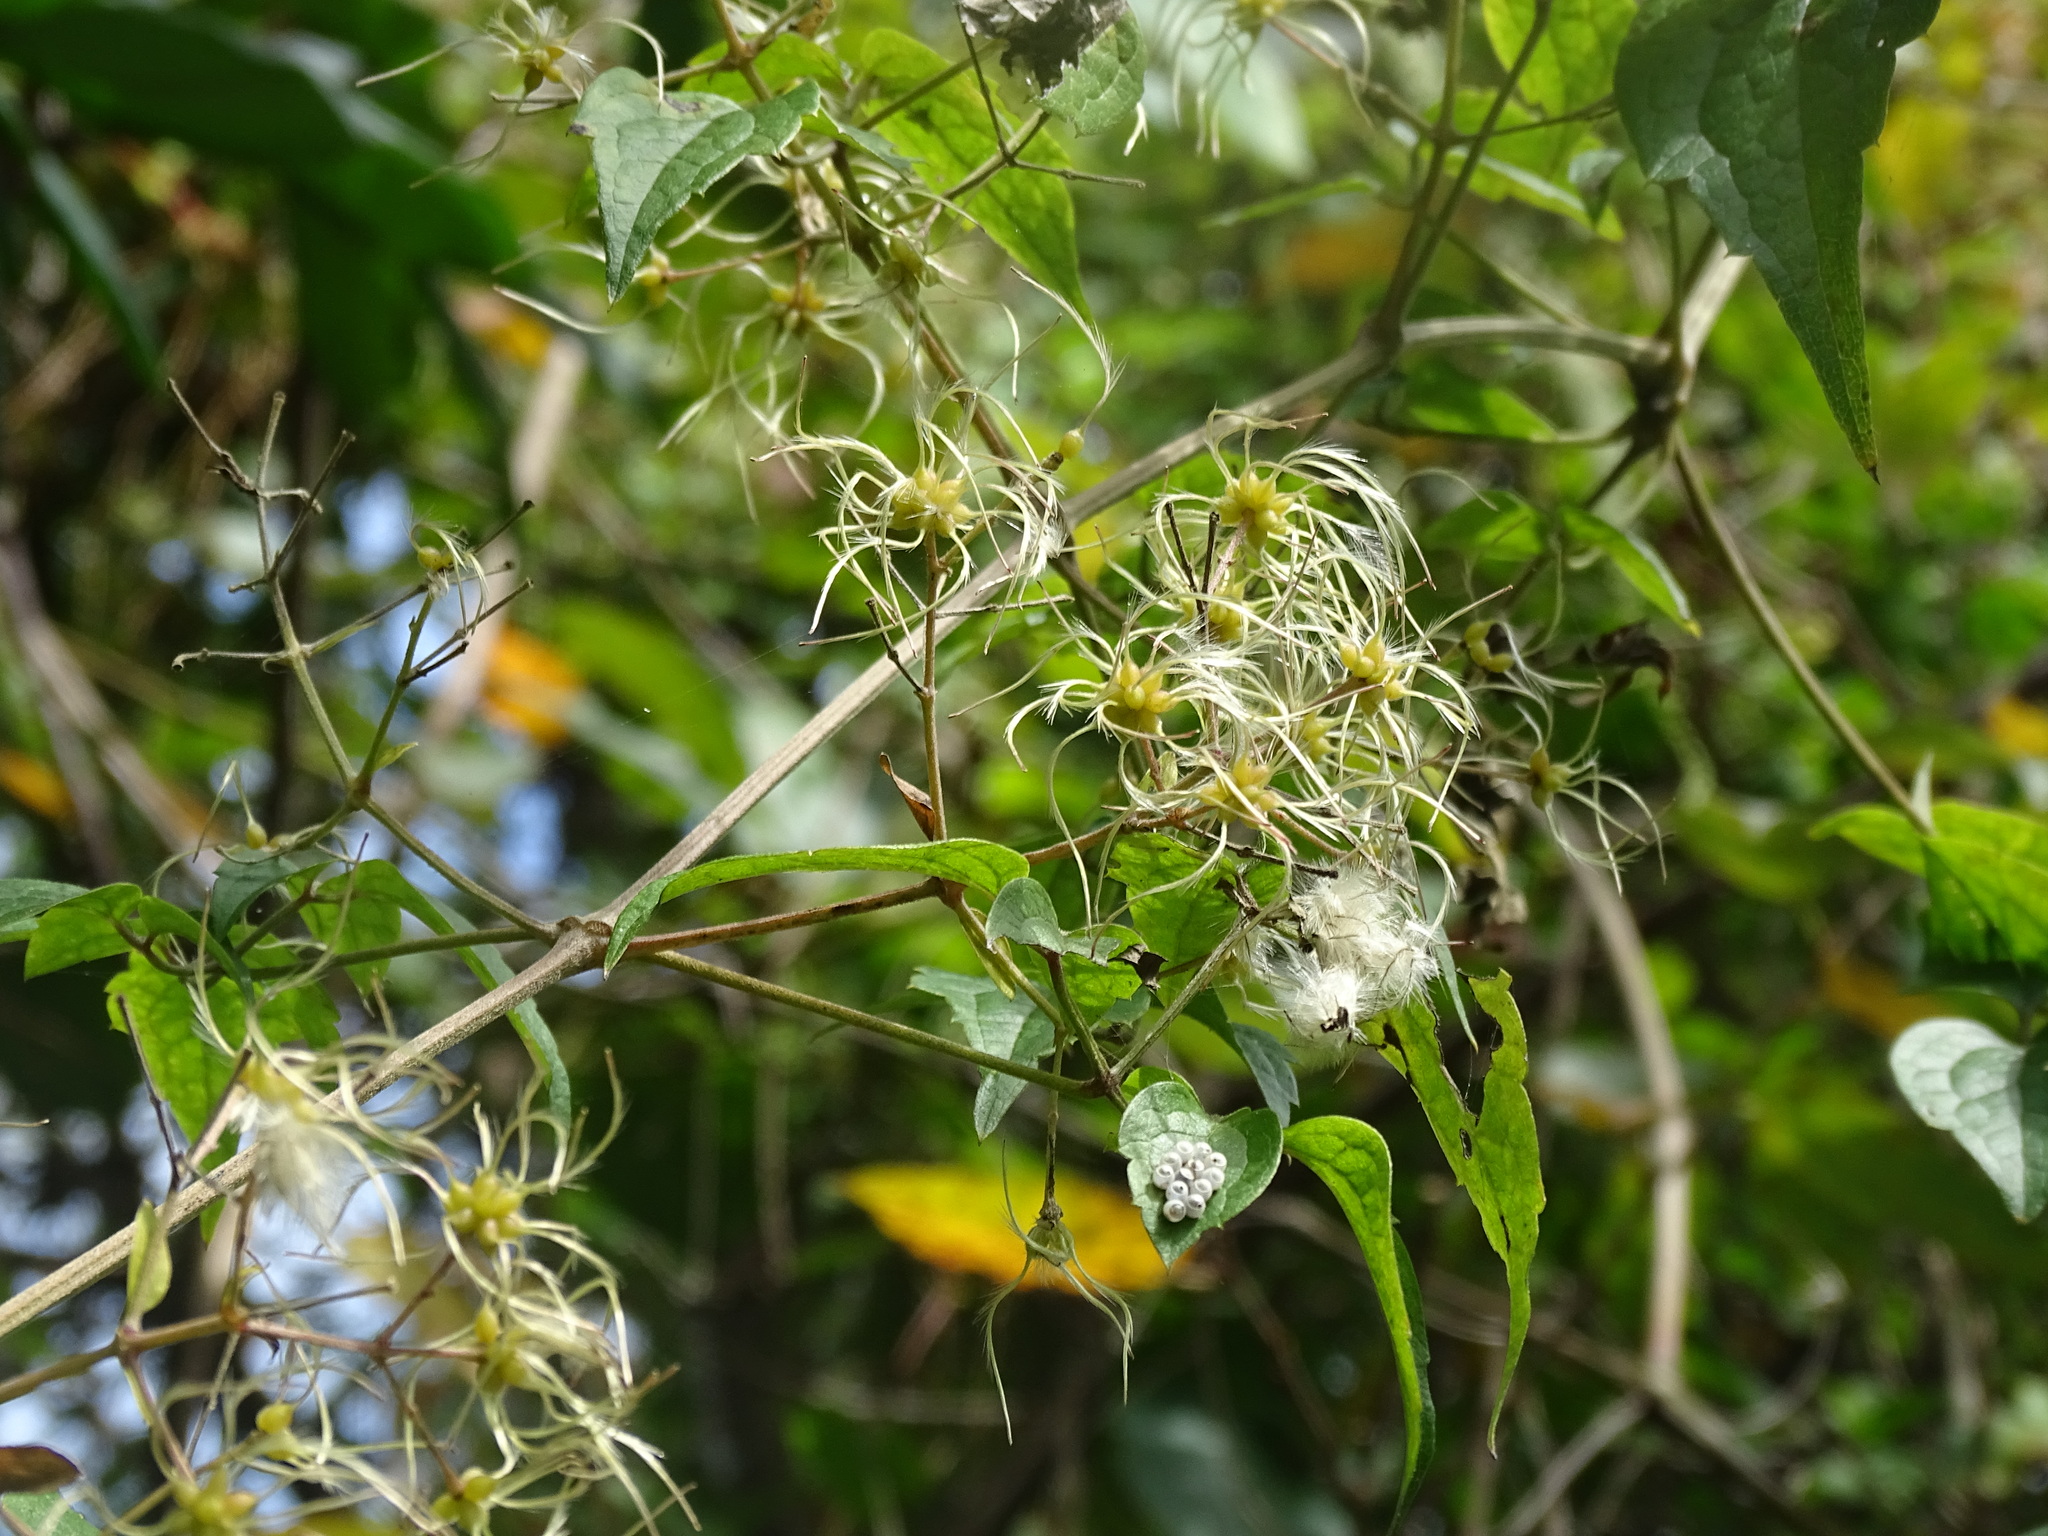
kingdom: Plantae
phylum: Tracheophyta
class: Magnoliopsida
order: Ranunculales
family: Ranunculaceae
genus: Clematis
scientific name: Clematis grata
